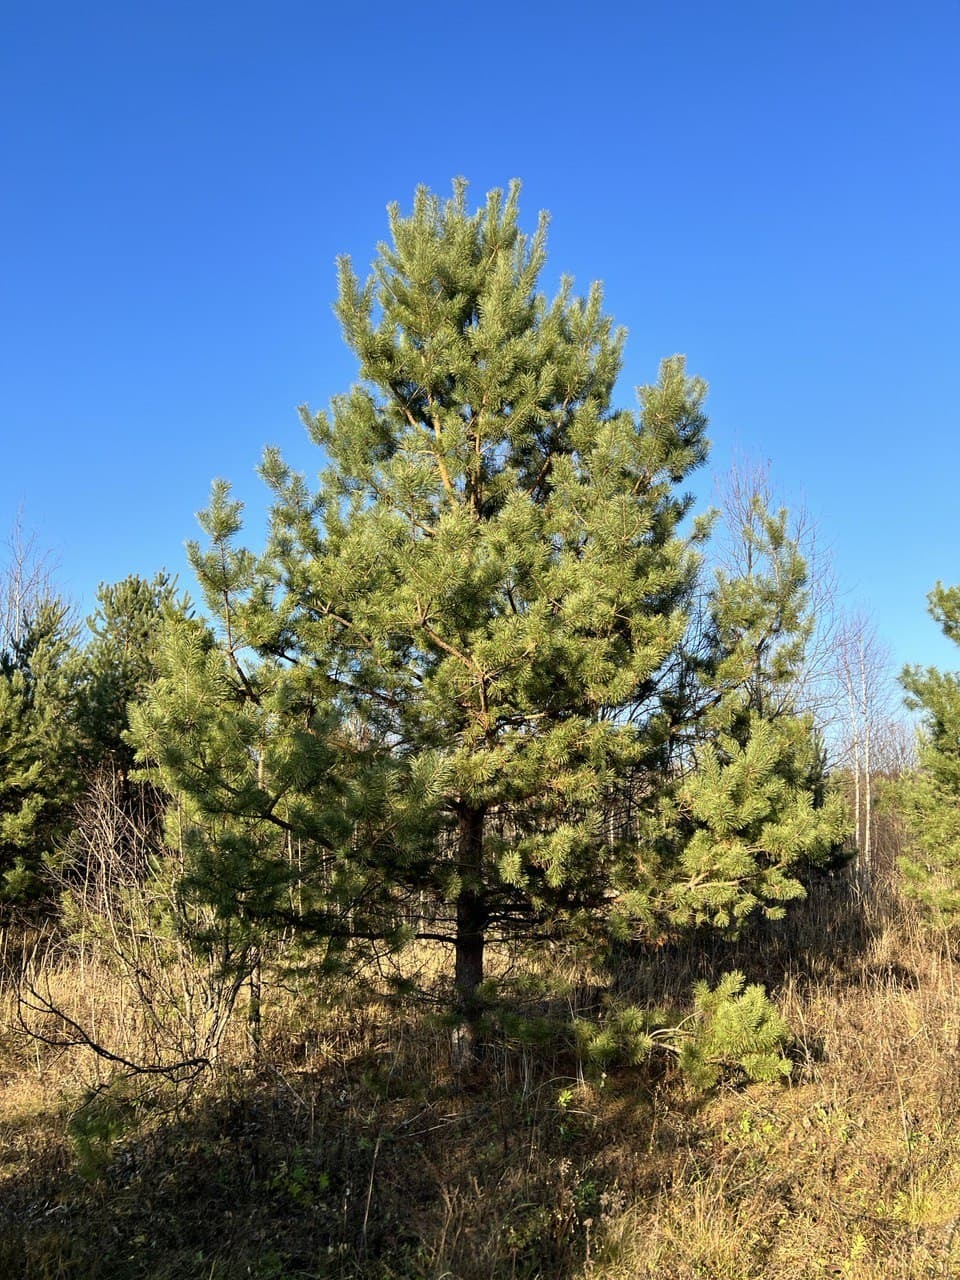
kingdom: Plantae
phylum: Tracheophyta
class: Pinopsida
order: Pinales
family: Pinaceae
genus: Pinus
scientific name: Pinus sylvestris
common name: Scots pine
